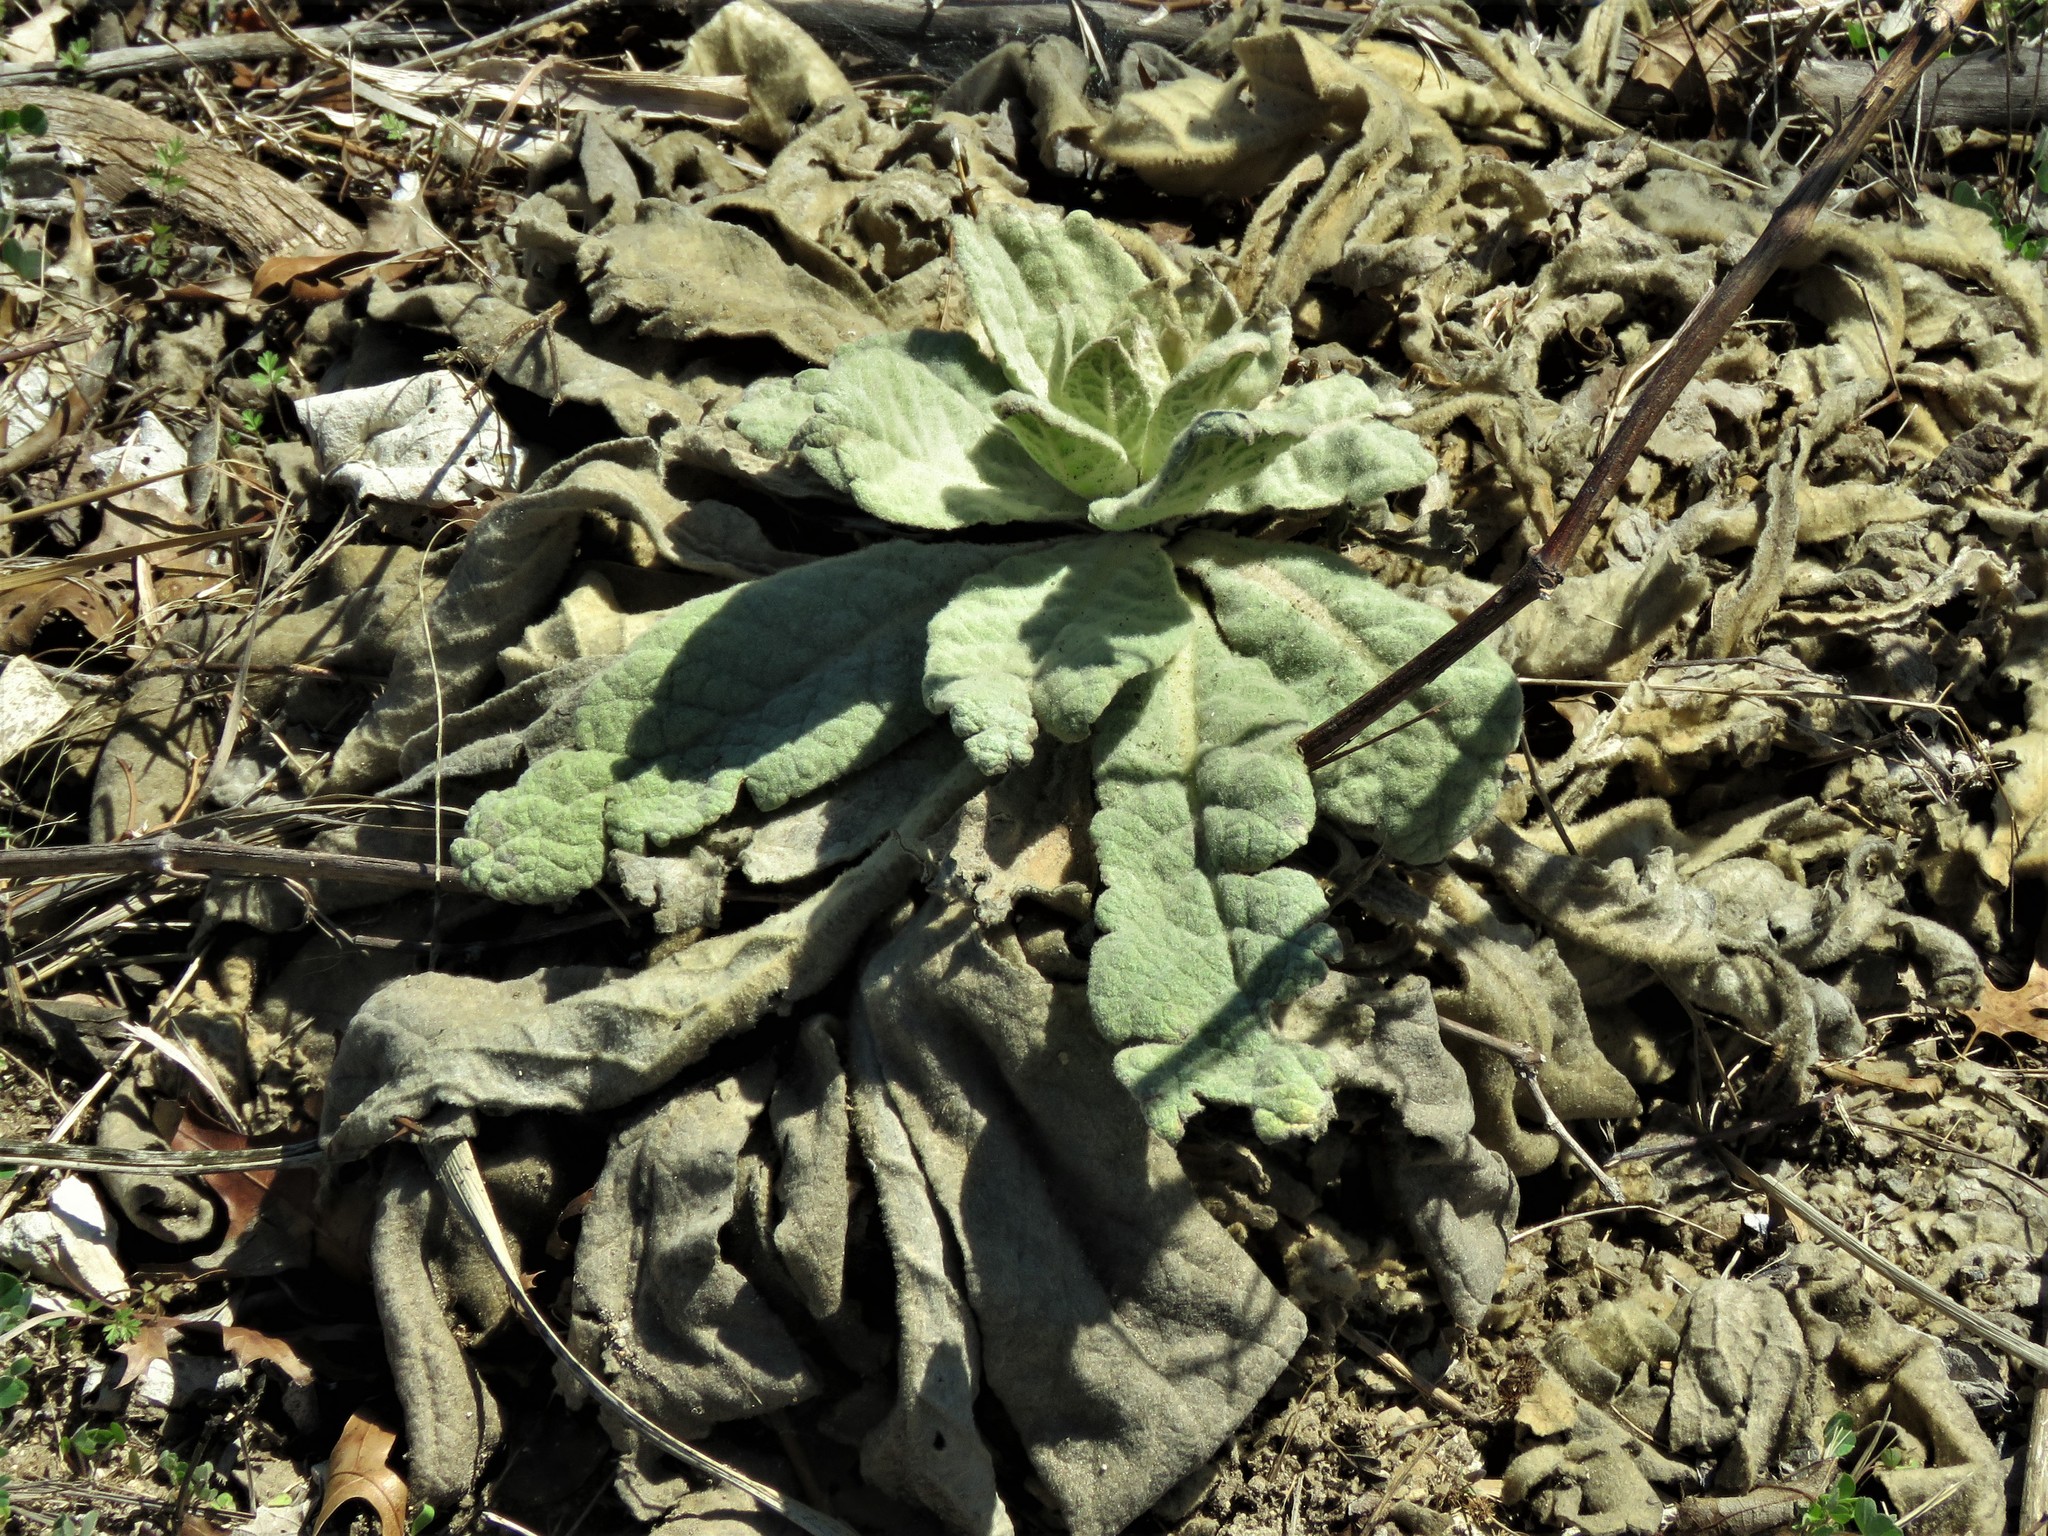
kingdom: Plantae
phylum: Tracheophyta
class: Magnoliopsida
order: Lamiales
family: Scrophulariaceae
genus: Verbascum
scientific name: Verbascum thapsus
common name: Common mullein
